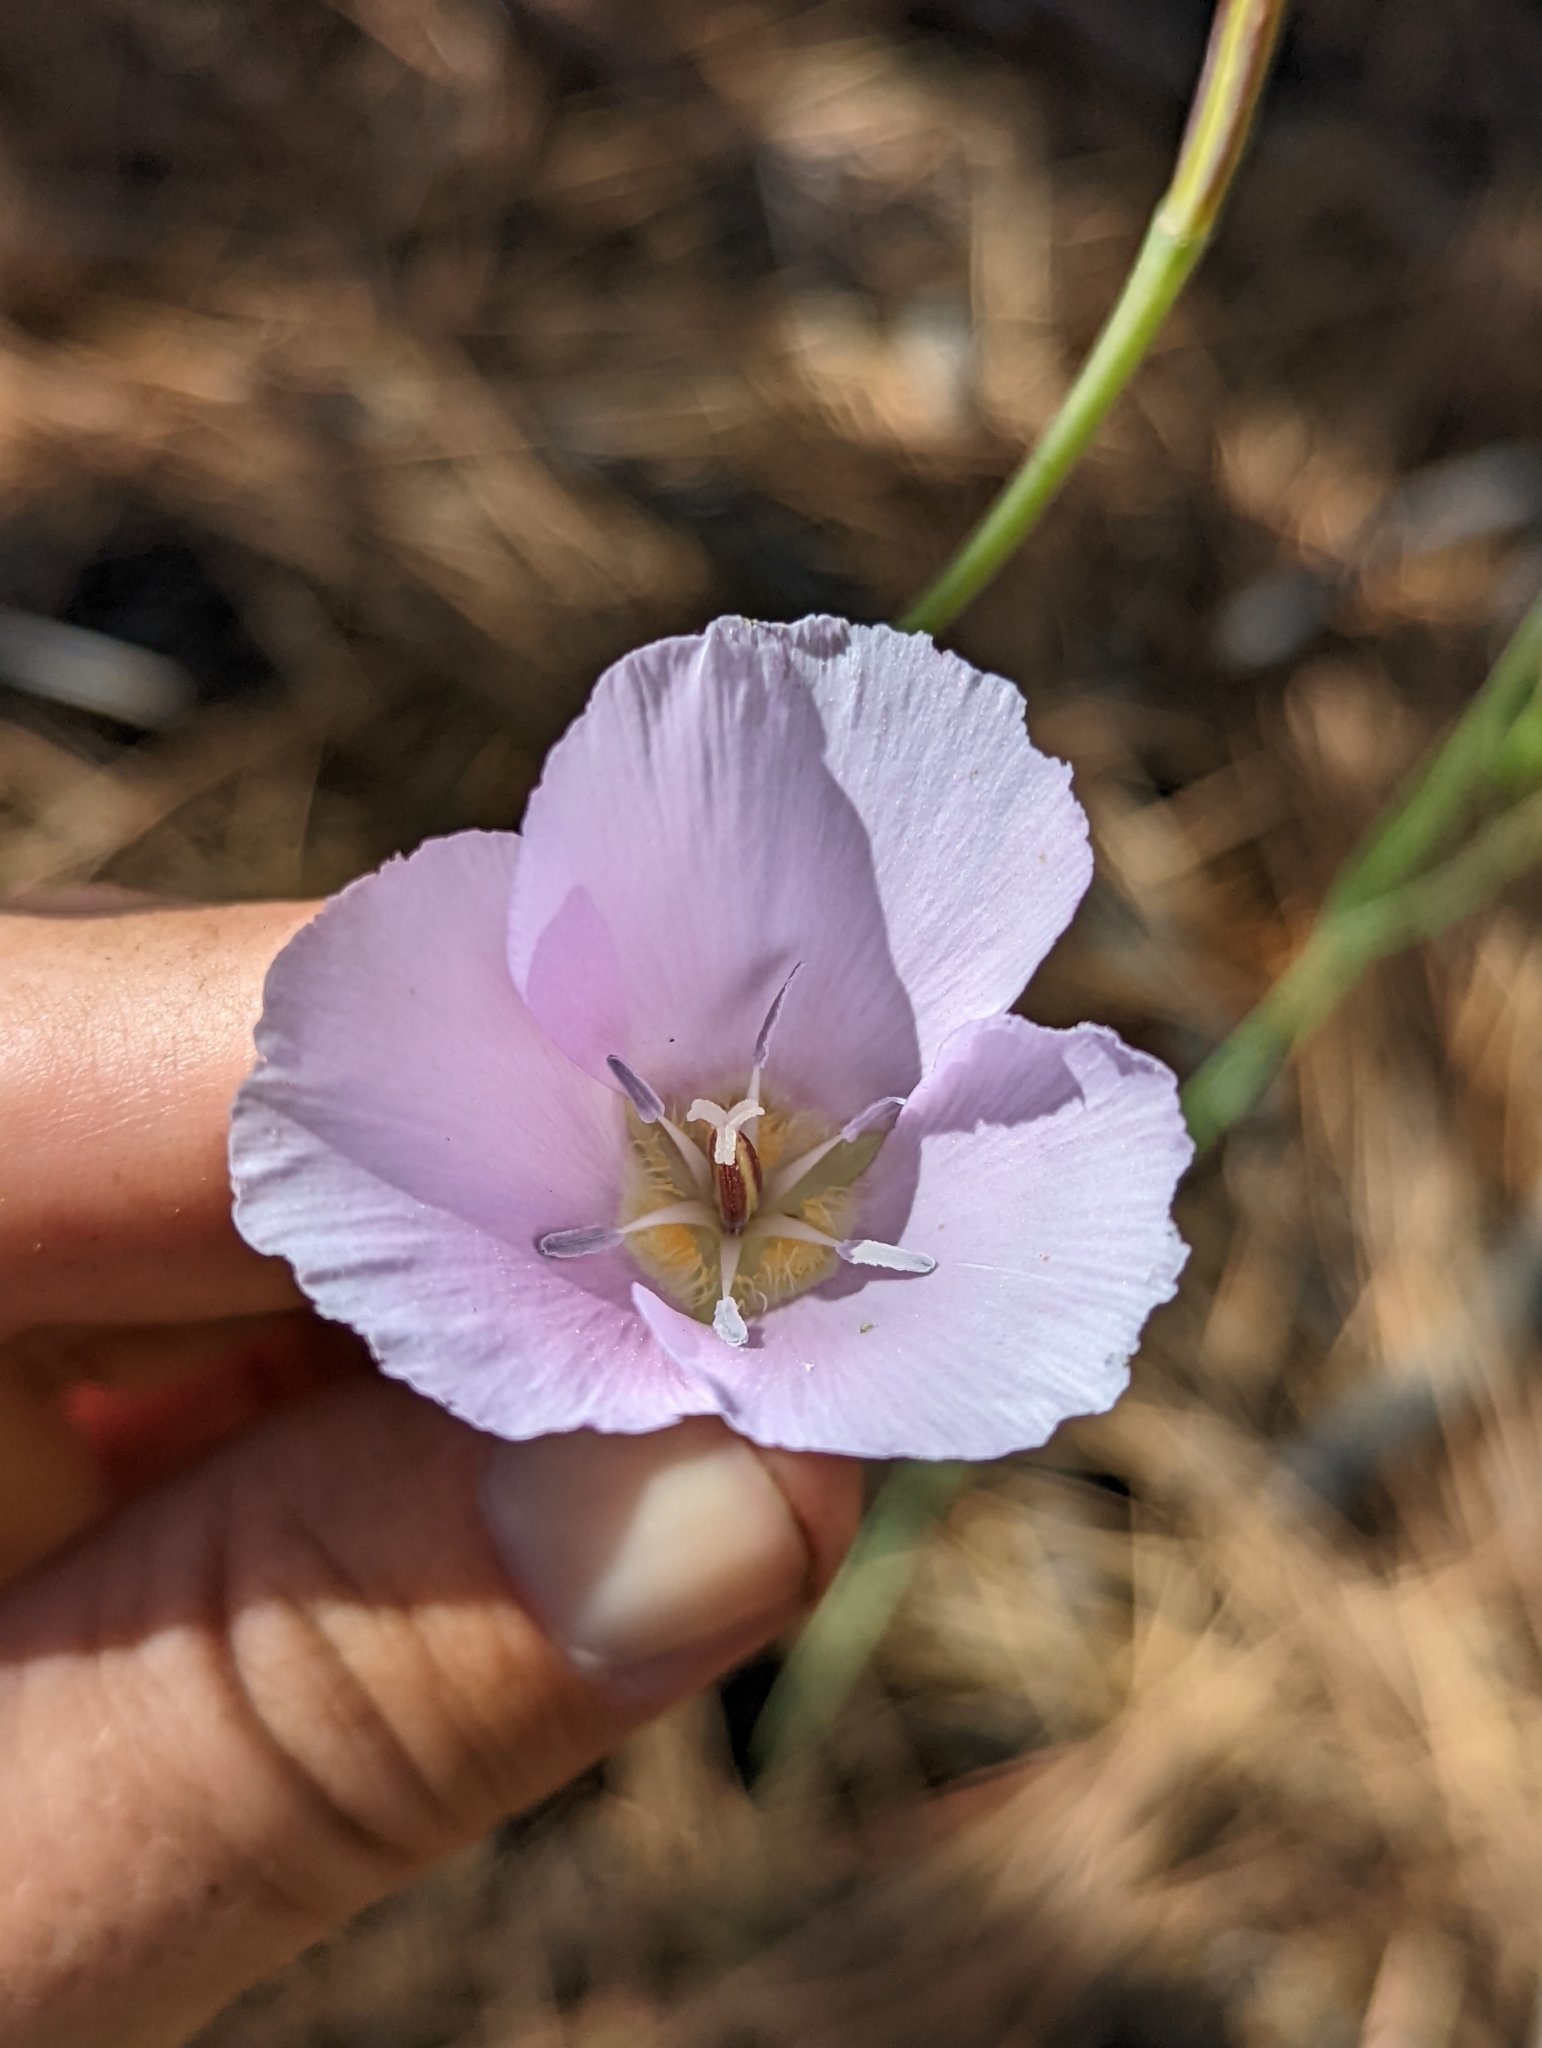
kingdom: Plantae
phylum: Tracheophyta
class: Liliopsida
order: Liliales
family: Liliaceae
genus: Calochortus
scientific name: Calochortus palmeri
